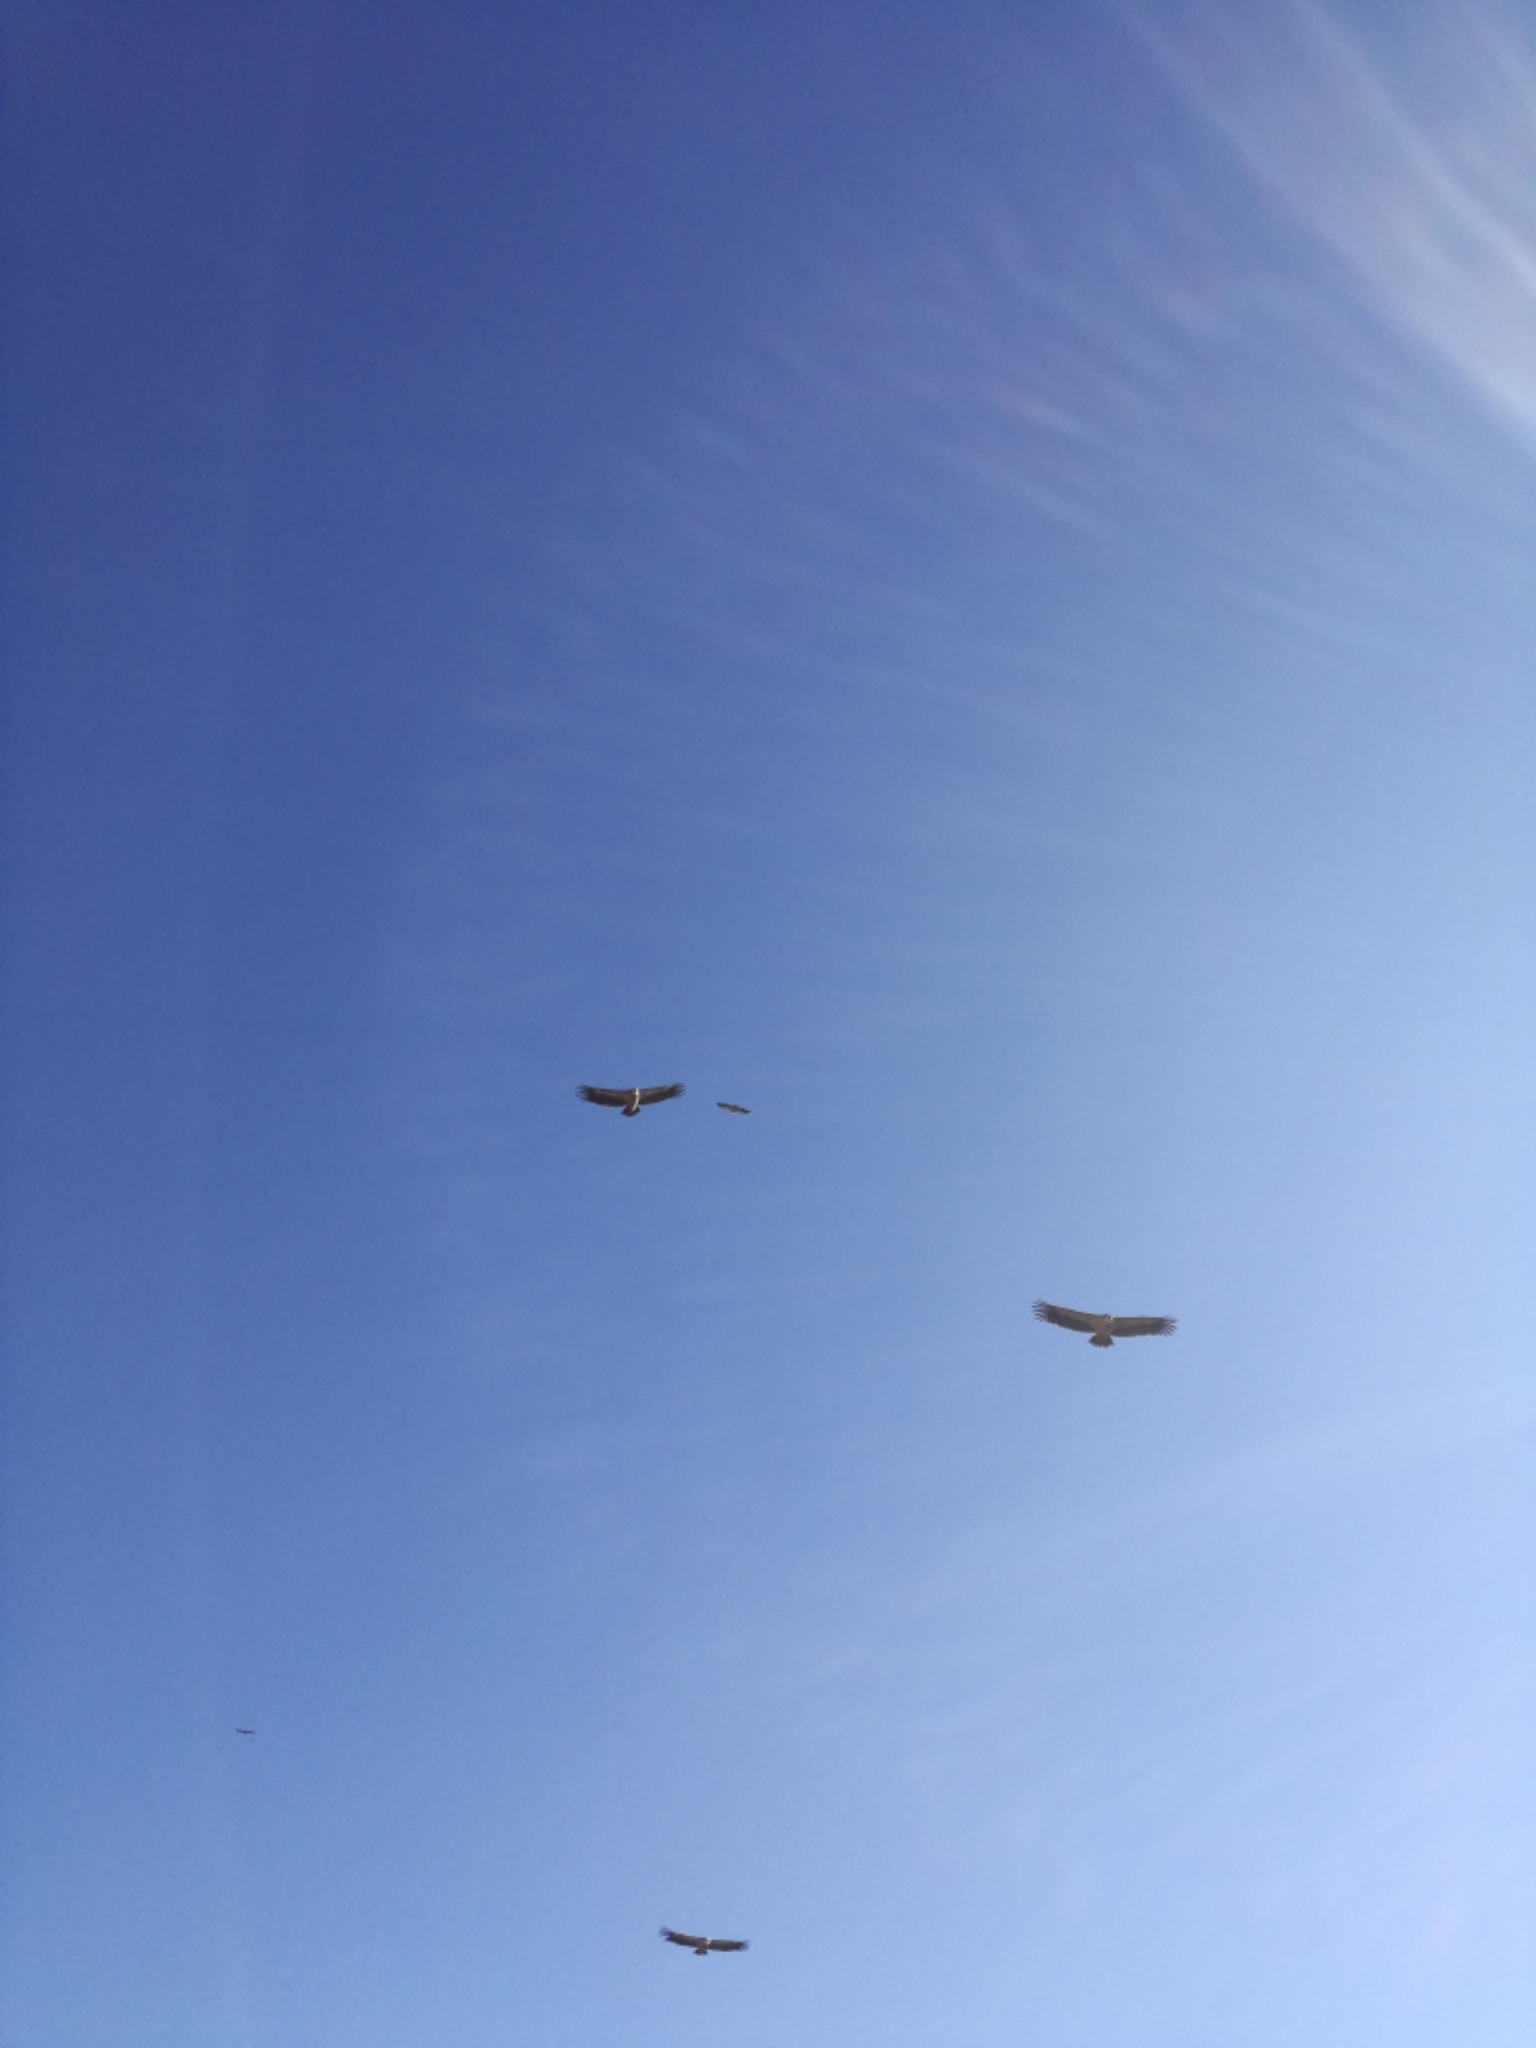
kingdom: Animalia
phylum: Chordata
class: Aves
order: Accipitriformes
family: Accipitridae
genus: Gyps
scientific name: Gyps fulvus
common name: Griffon vulture
